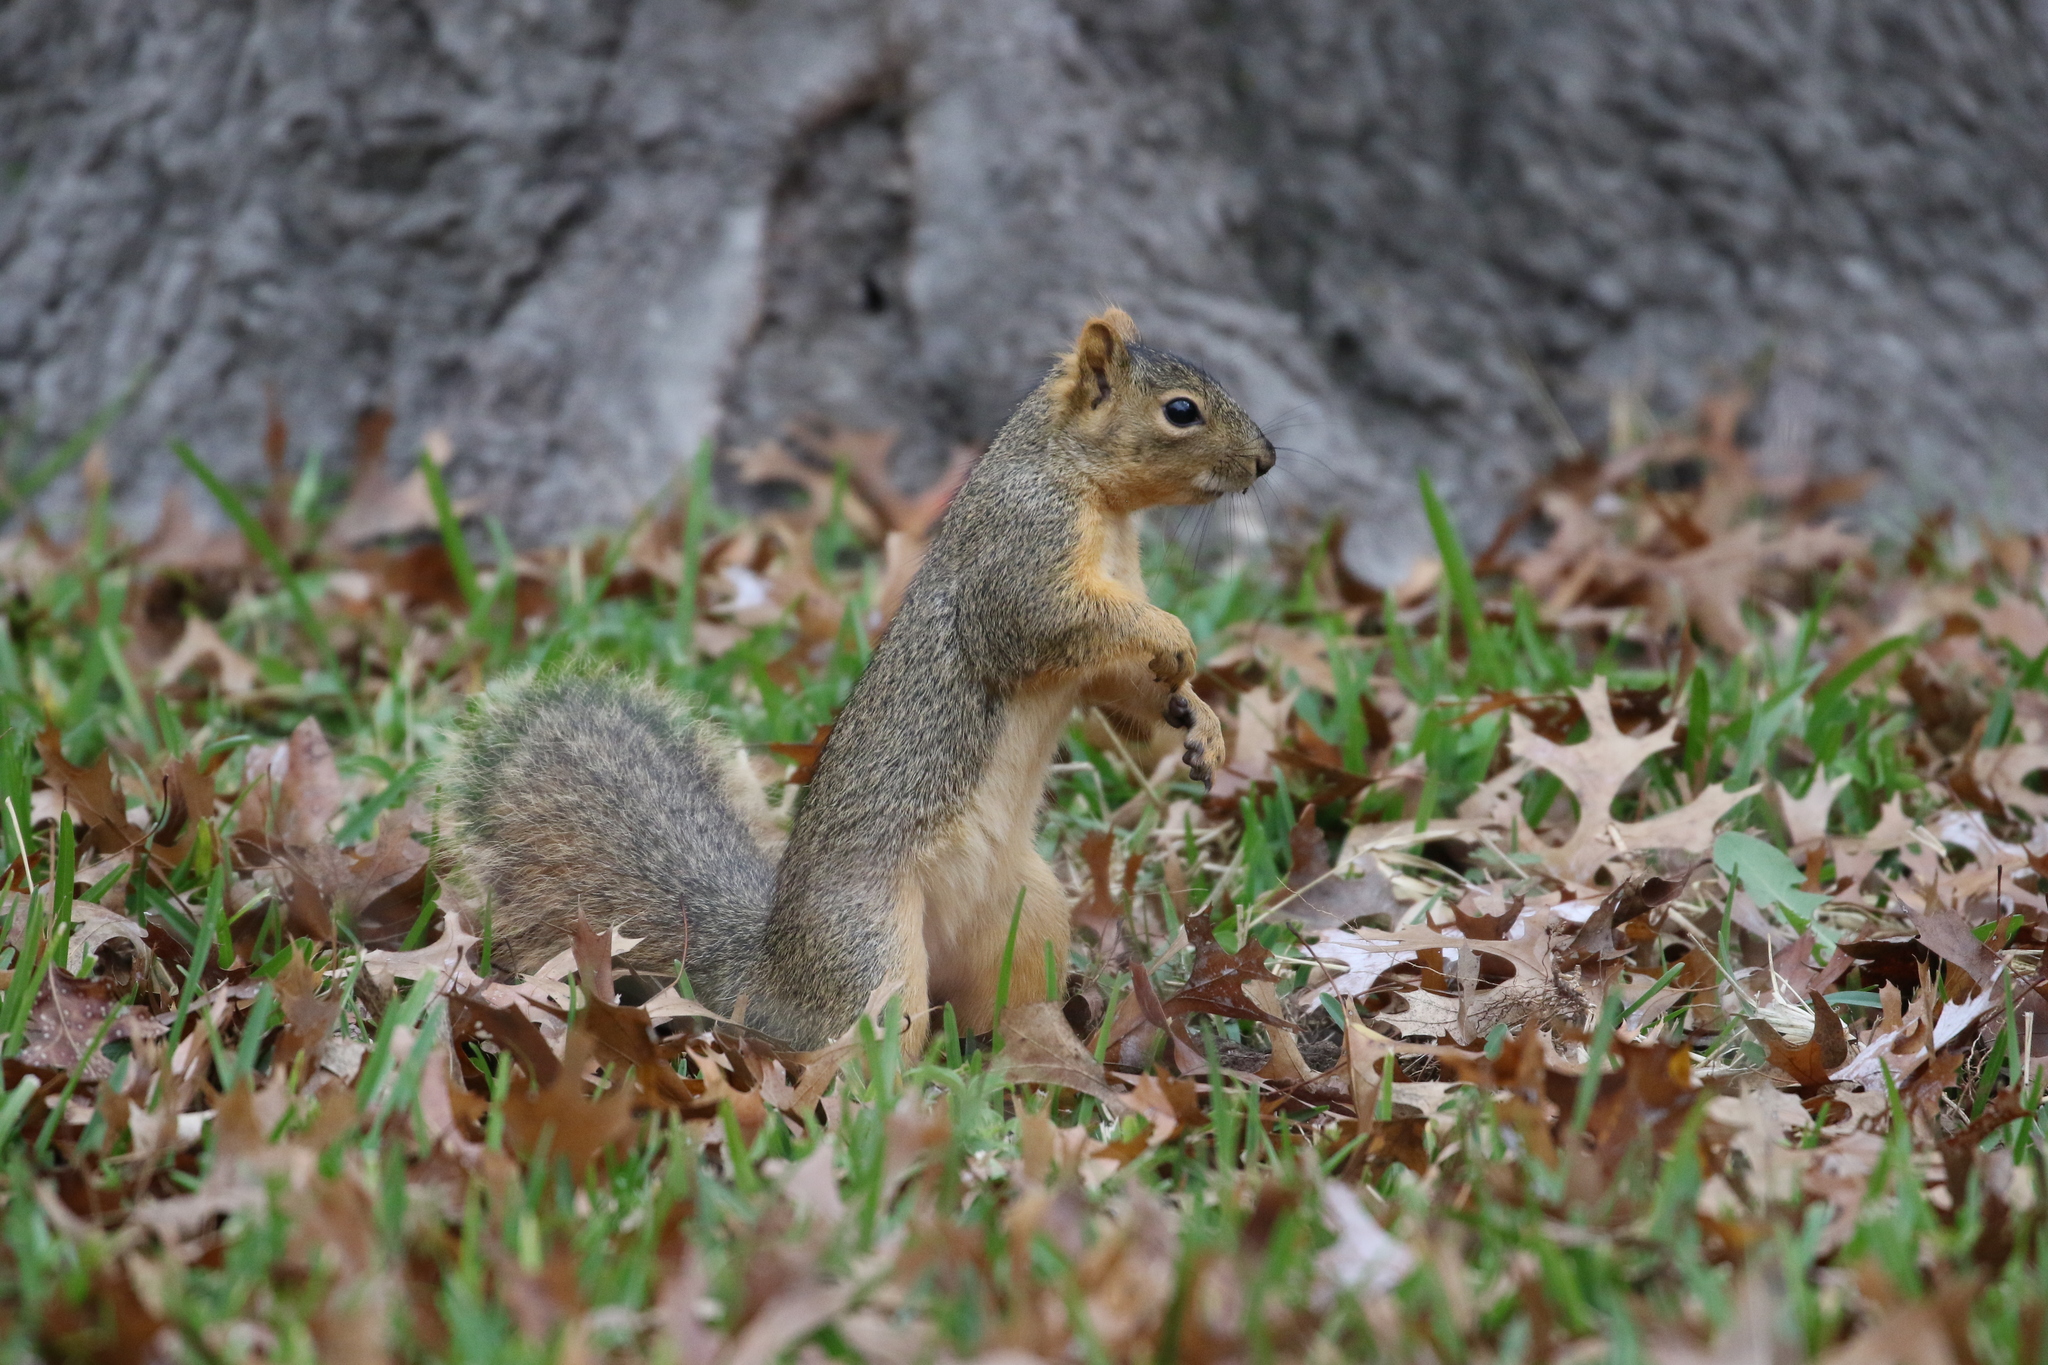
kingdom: Animalia
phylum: Chordata
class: Mammalia
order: Rodentia
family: Sciuridae
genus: Sciurus
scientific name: Sciurus niger
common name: Fox squirrel
